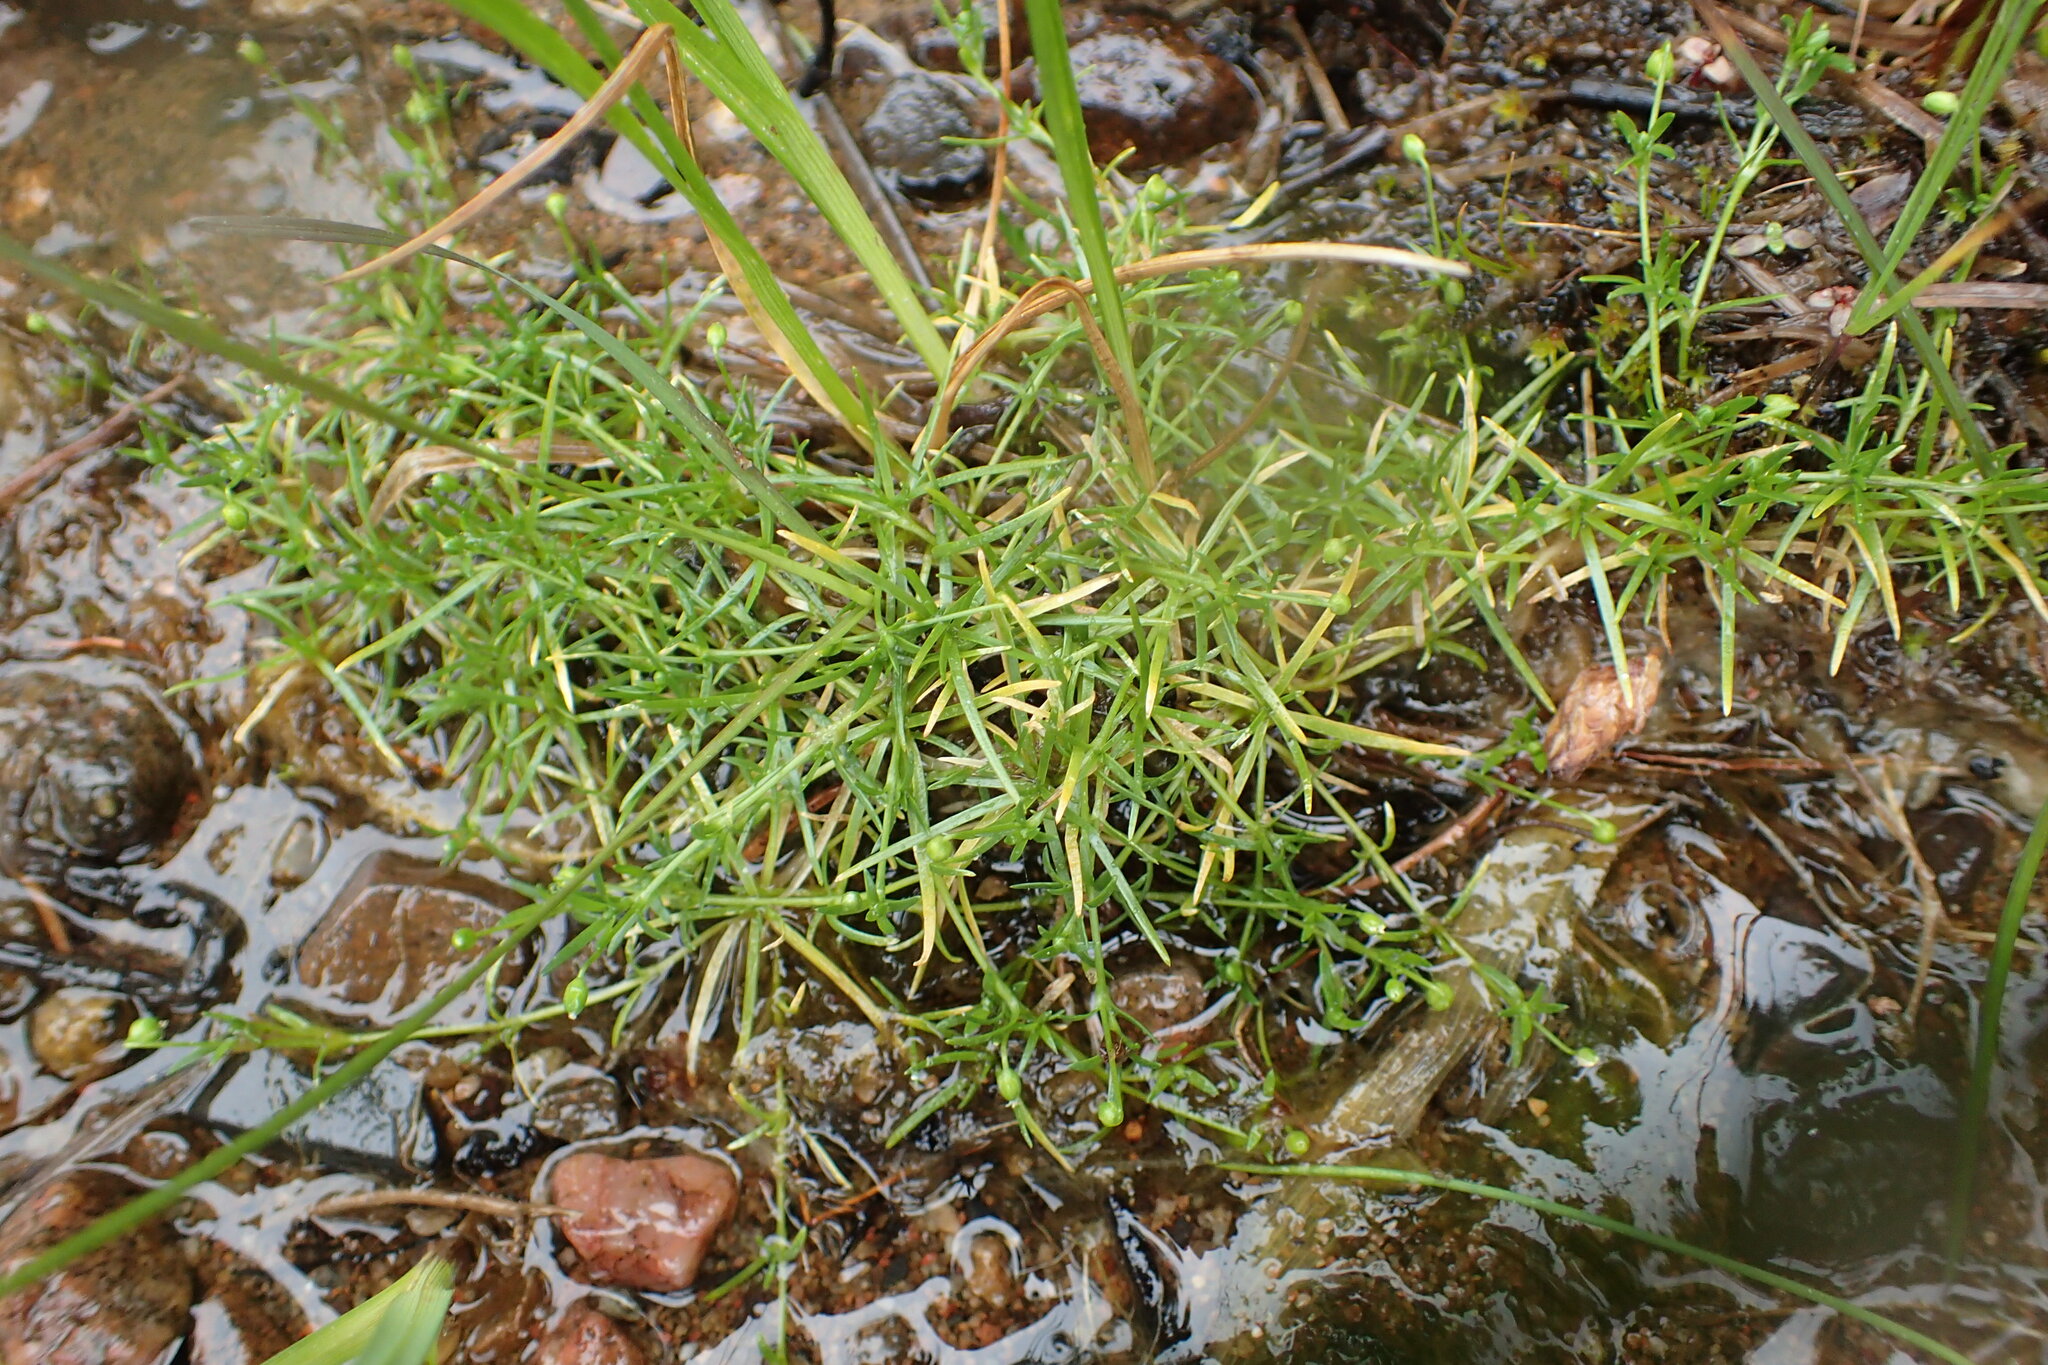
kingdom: Plantae
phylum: Tracheophyta
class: Magnoliopsida
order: Caryophyllales
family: Caryophyllaceae
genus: Sagina
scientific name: Sagina procumbens
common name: Procumbent pearlwort
